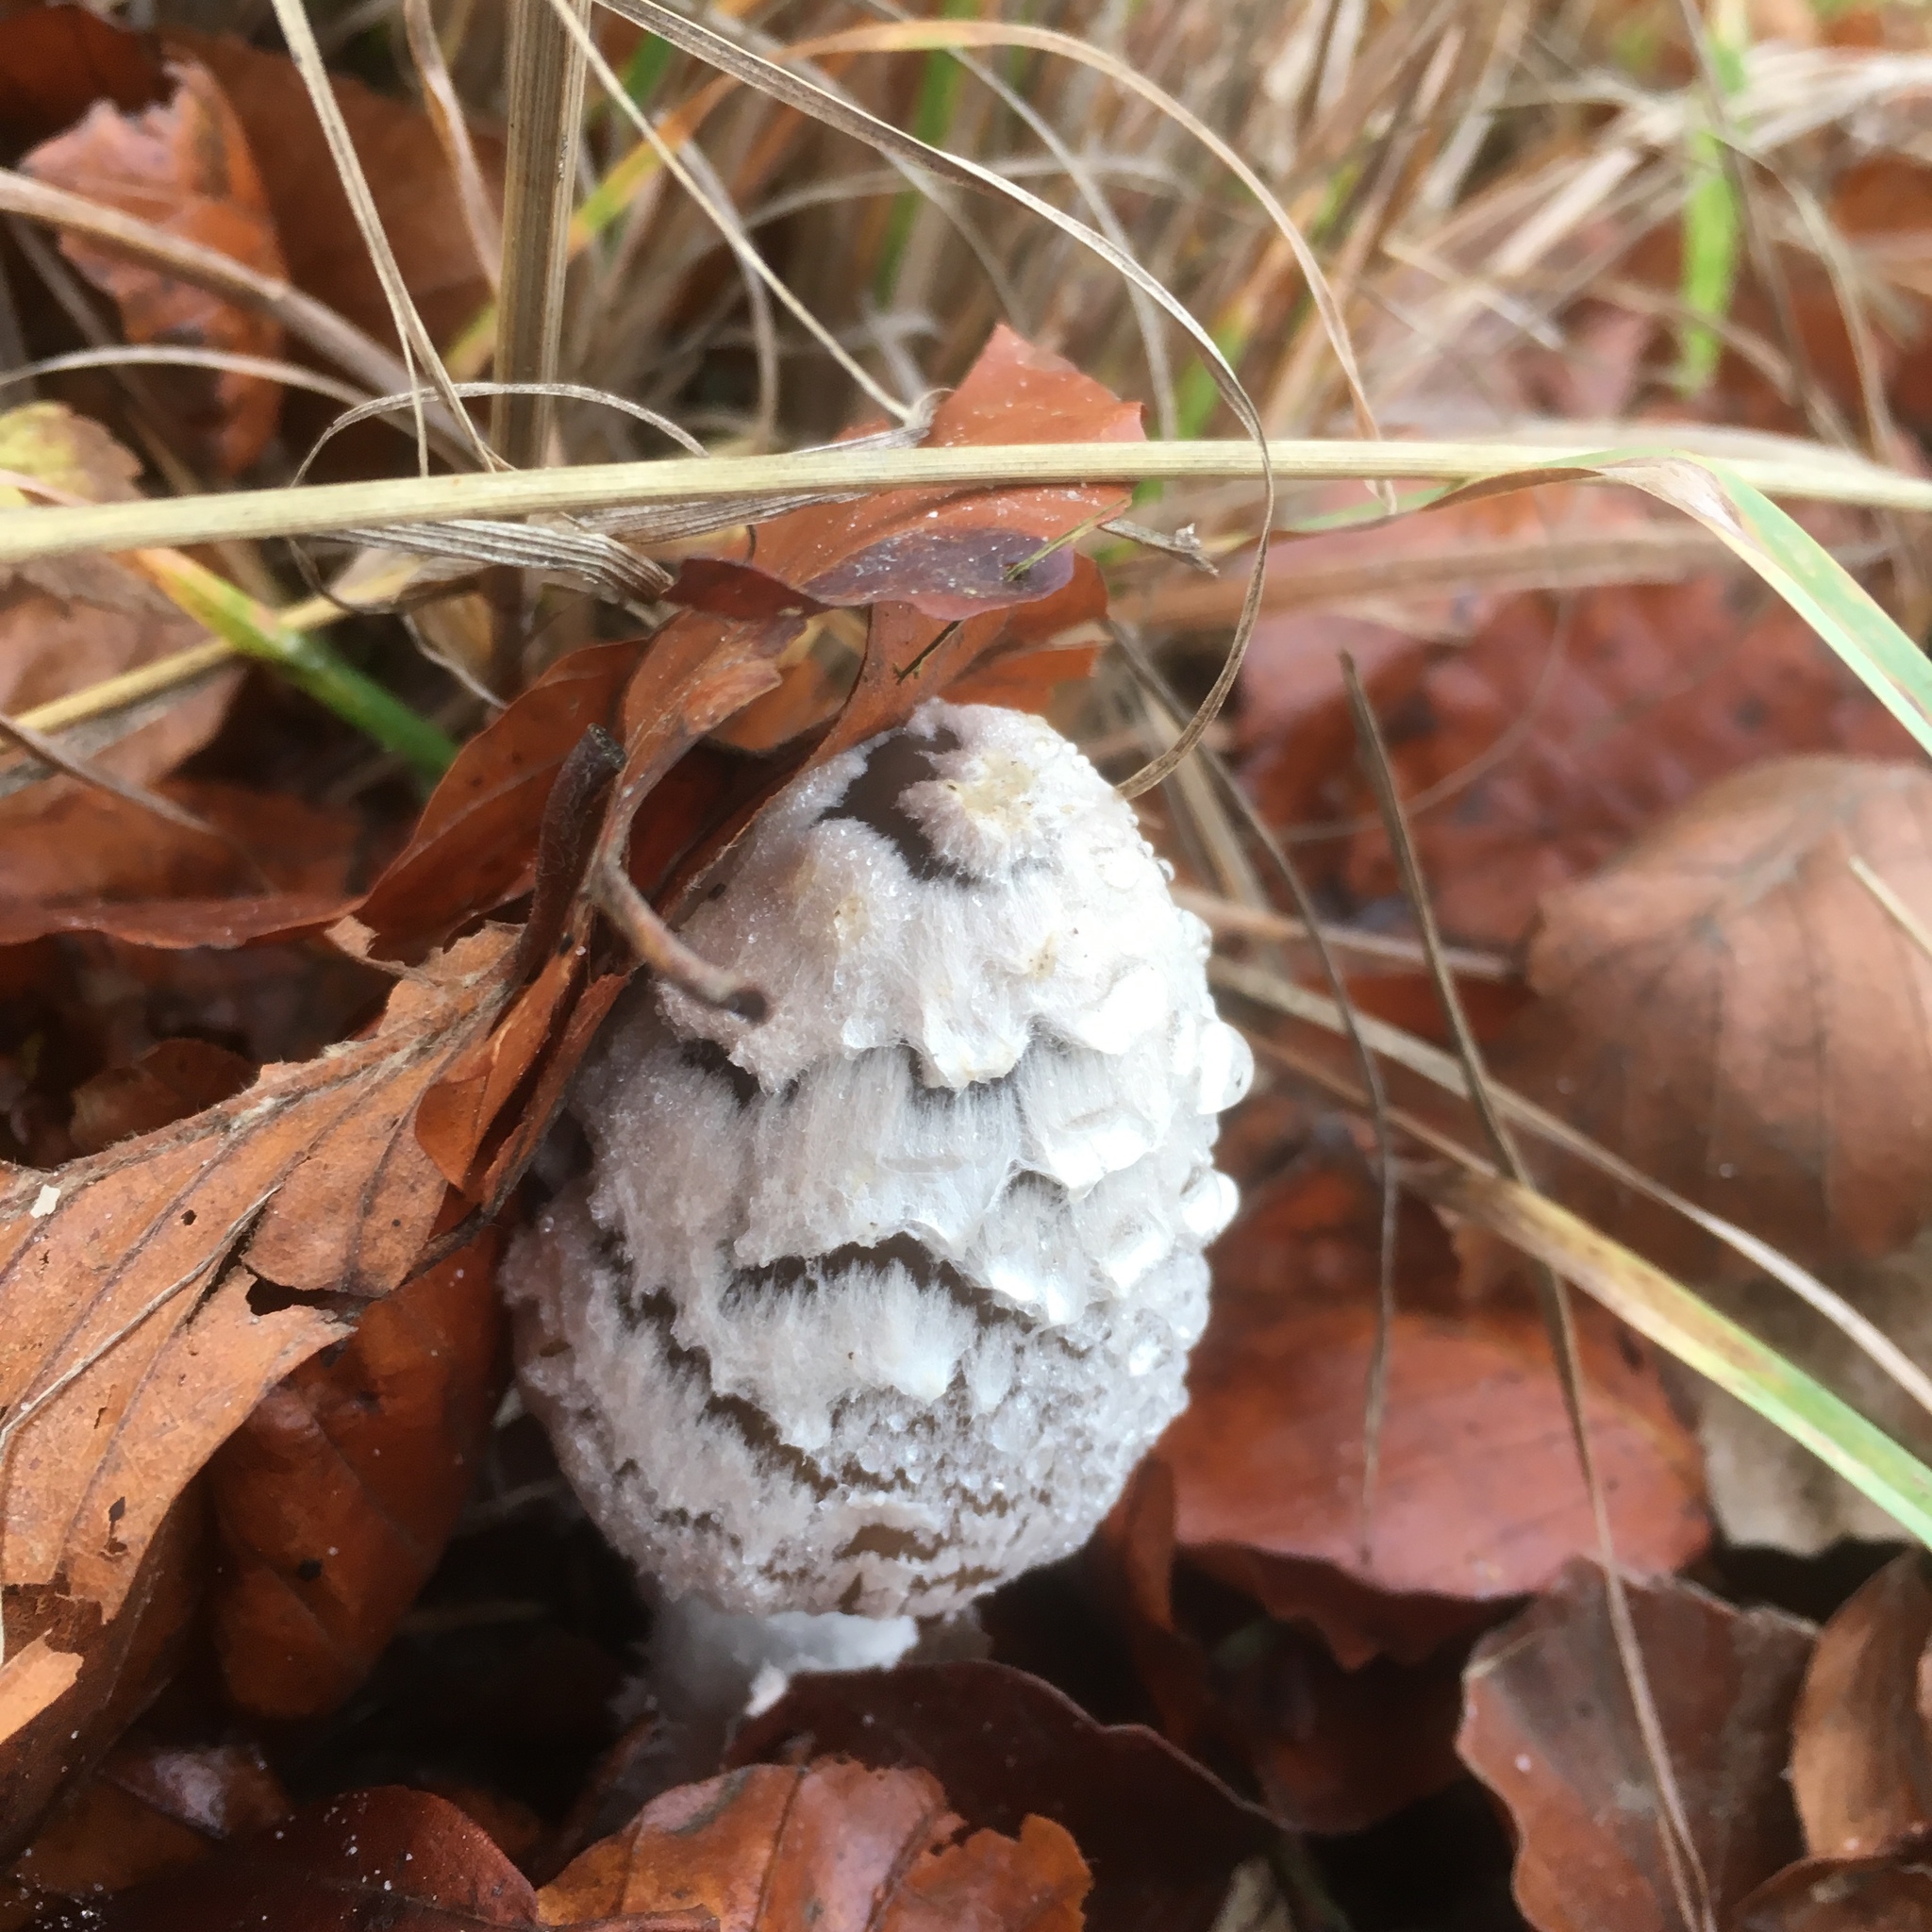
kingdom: Fungi
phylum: Basidiomycota
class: Agaricomycetes
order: Agaricales
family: Agaricaceae
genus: Coprinus
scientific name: Coprinus comatus
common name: Lawyer's wig
